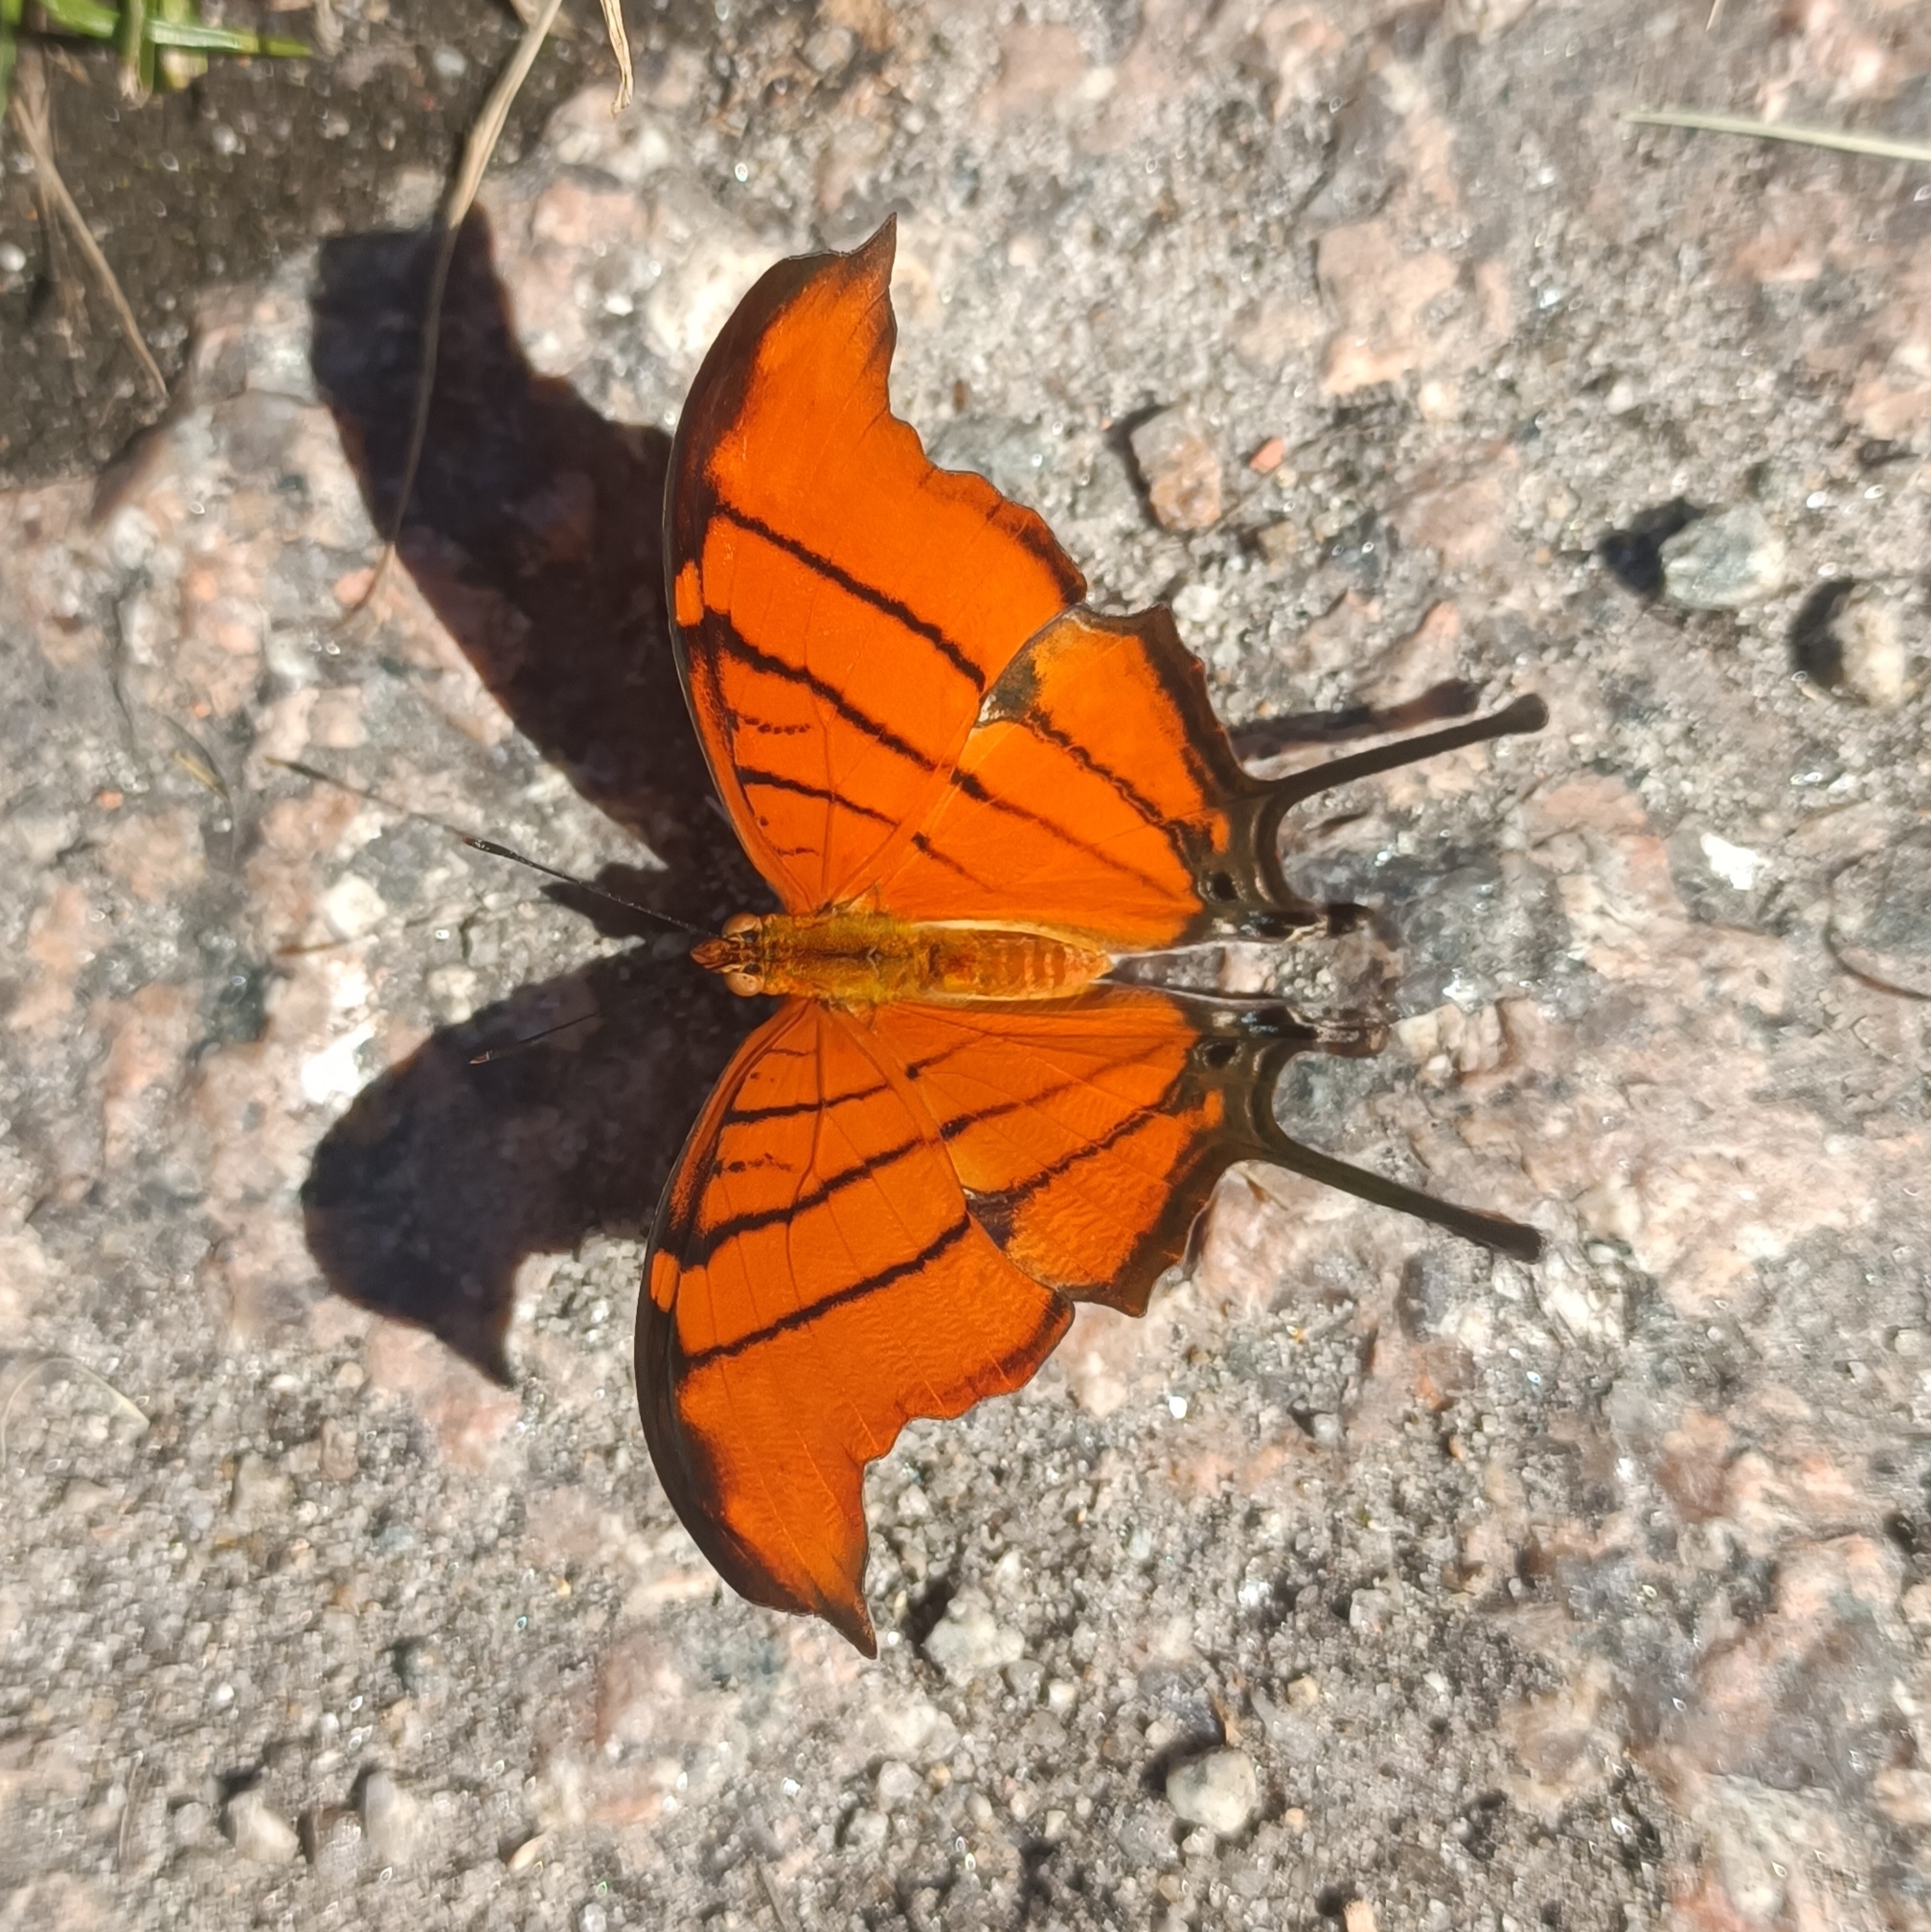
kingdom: Animalia
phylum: Arthropoda
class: Insecta
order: Lepidoptera
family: Nymphalidae
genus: Marpesia
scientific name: Marpesia petreus
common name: Red dagger wing
